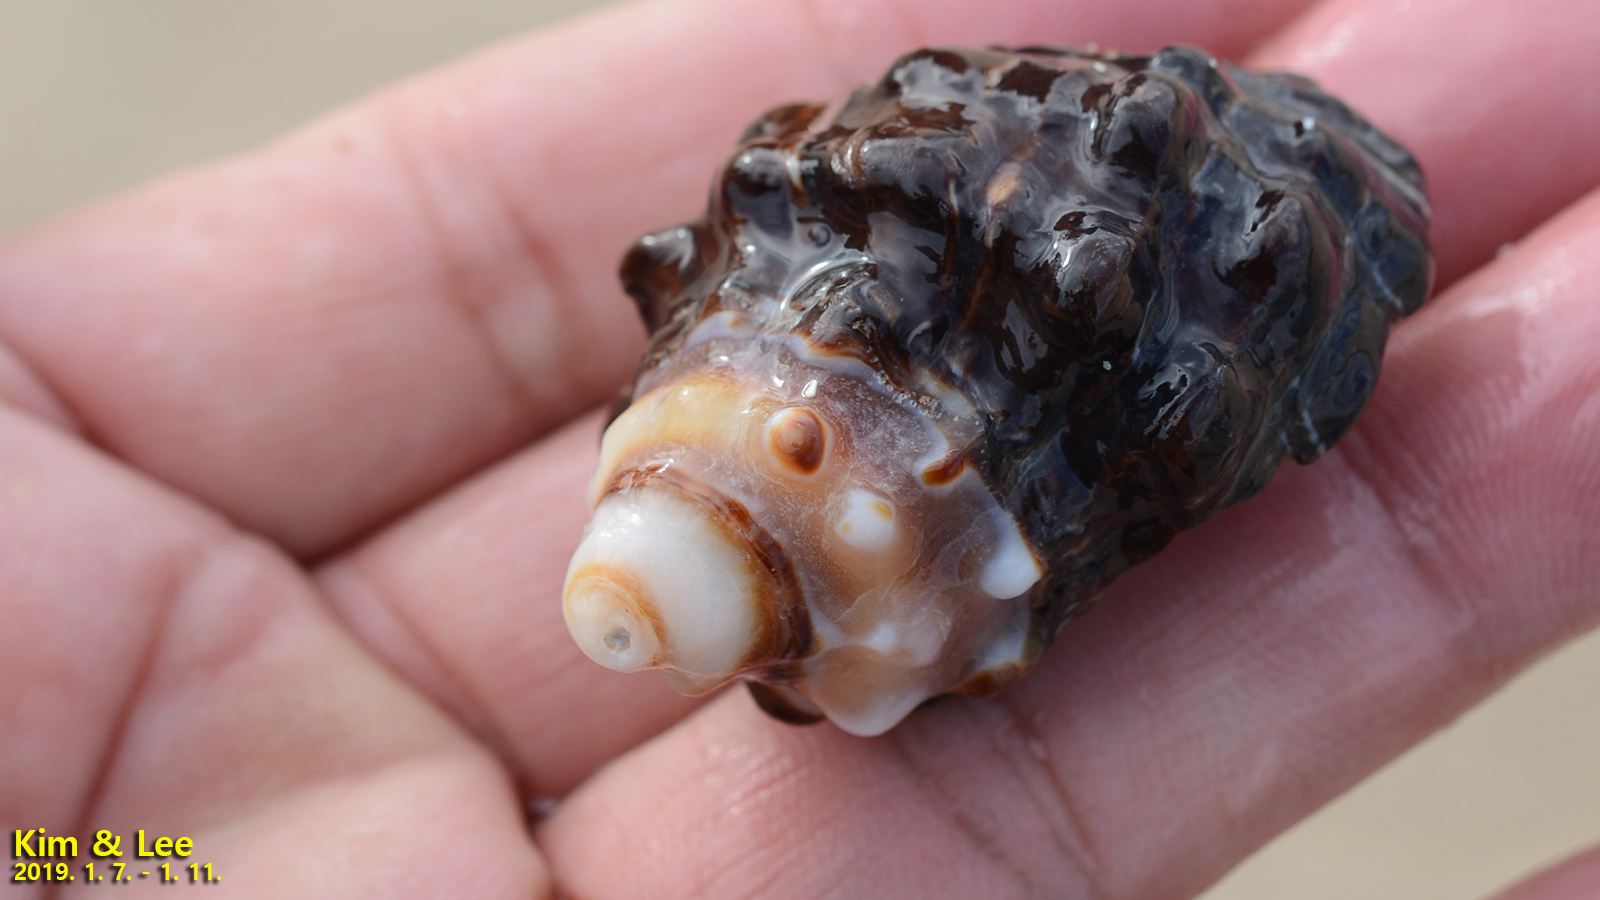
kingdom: Animalia
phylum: Mollusca
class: Gastropoda
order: Neogastropoda
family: Muricidae
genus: Reishia
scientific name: Reishia clavigera
